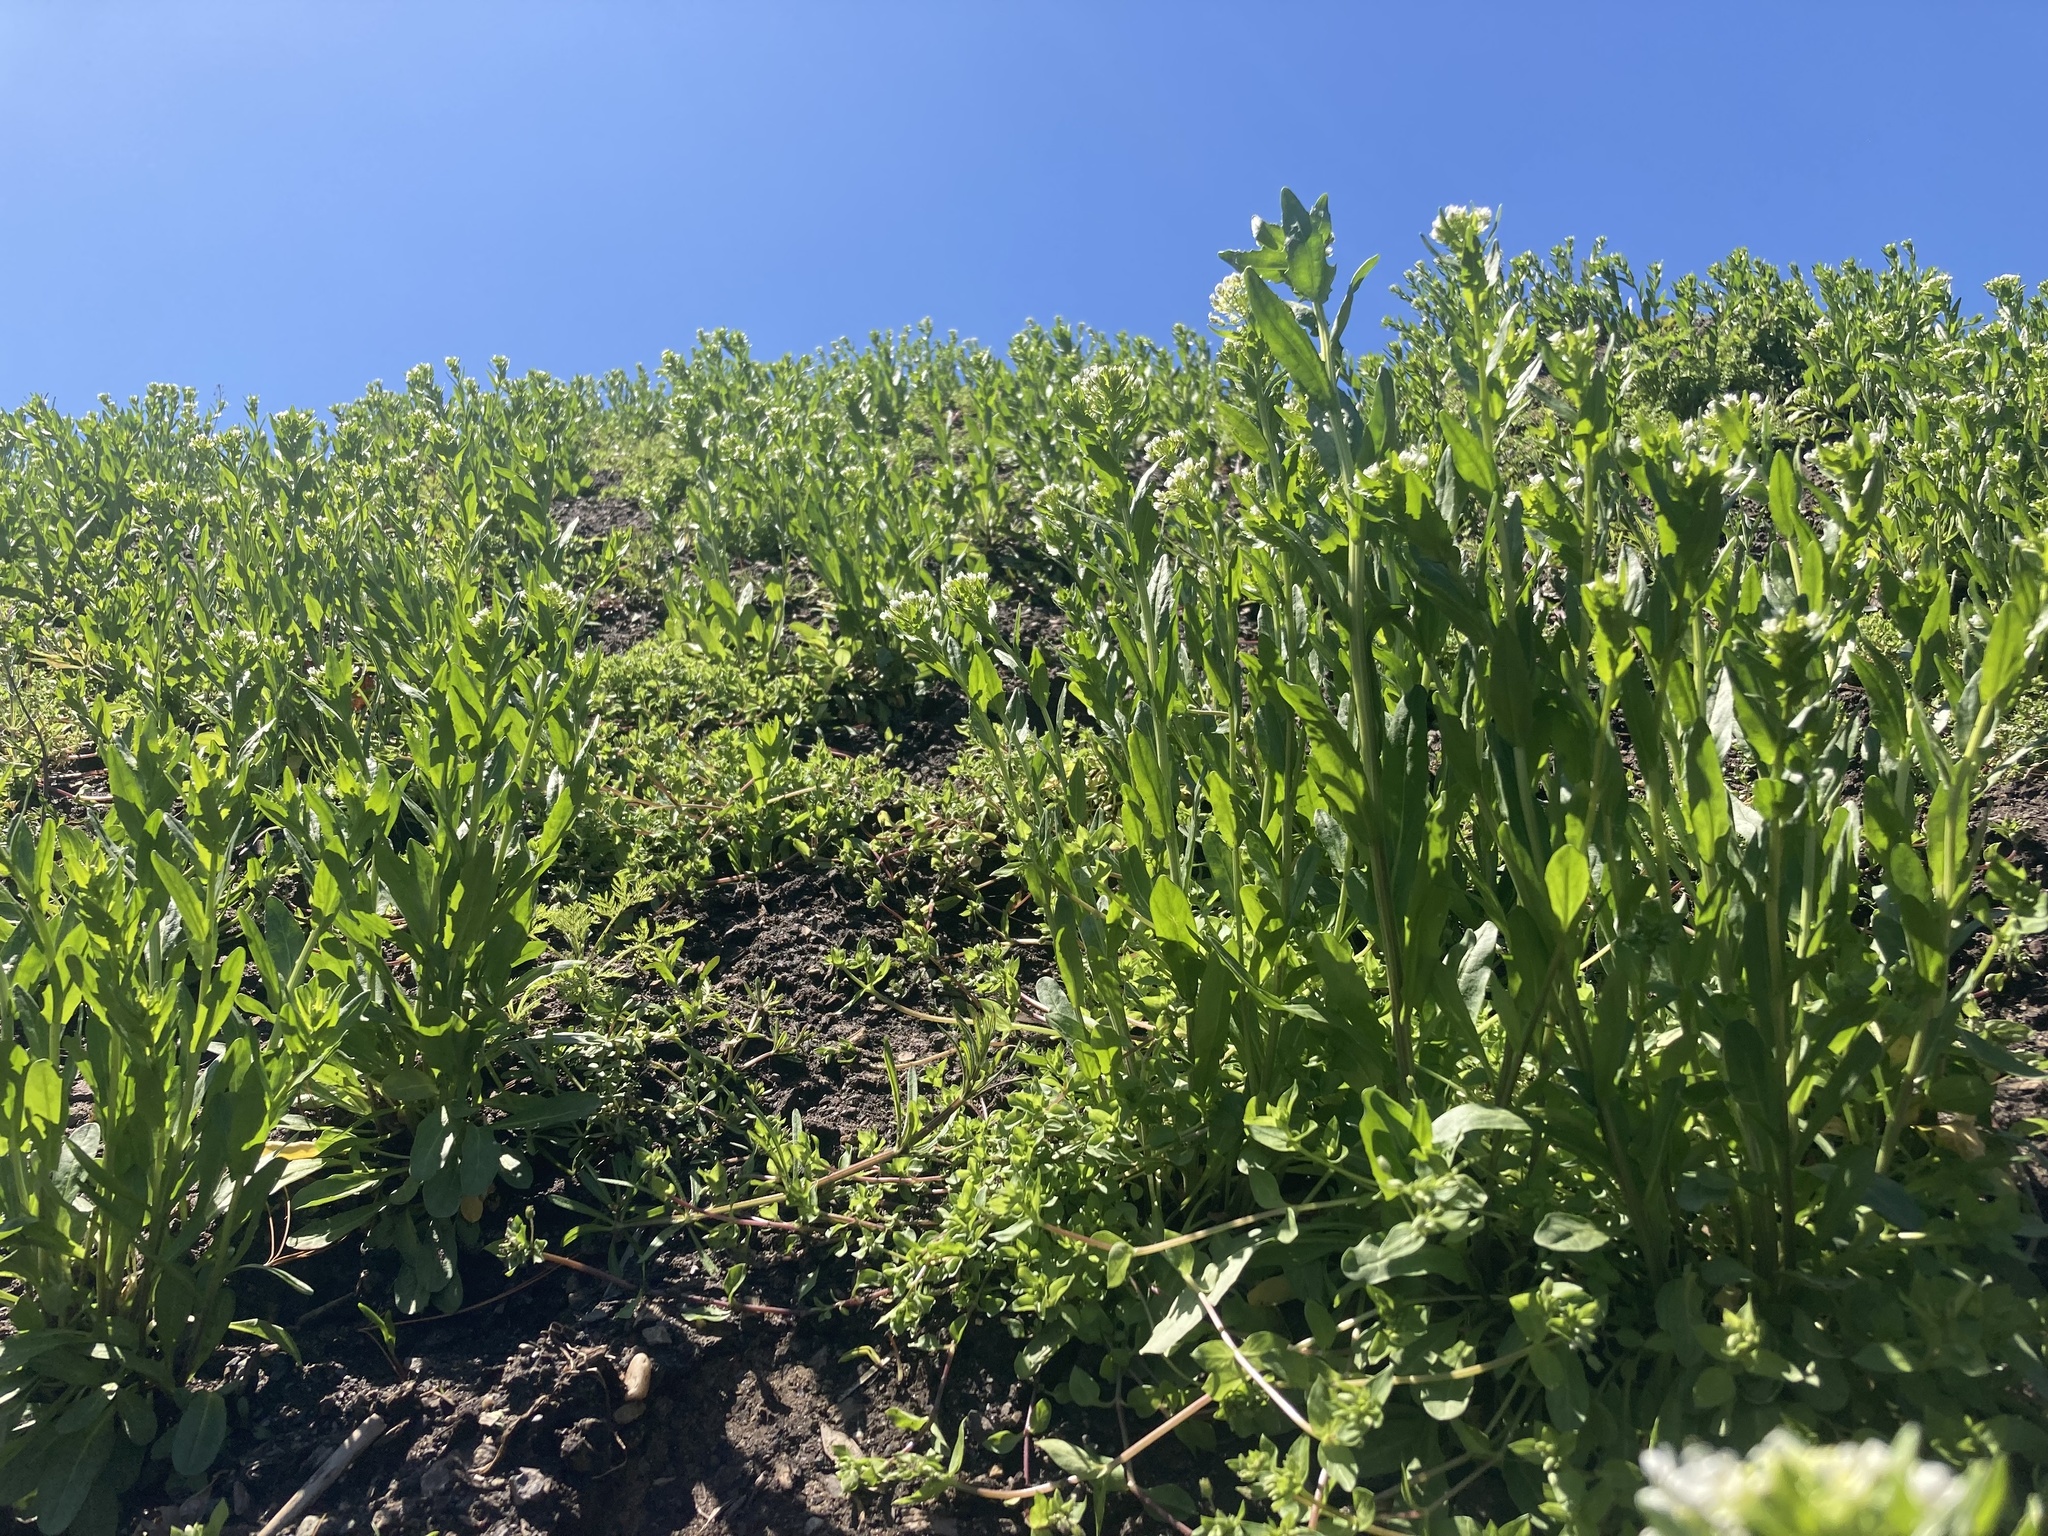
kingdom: Plantae
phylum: Tracheophyta
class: Magnoliopsida
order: Brassicales
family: Brassicaceae
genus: Thlaspi
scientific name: Thlaspi arvense
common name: Field pennycress
